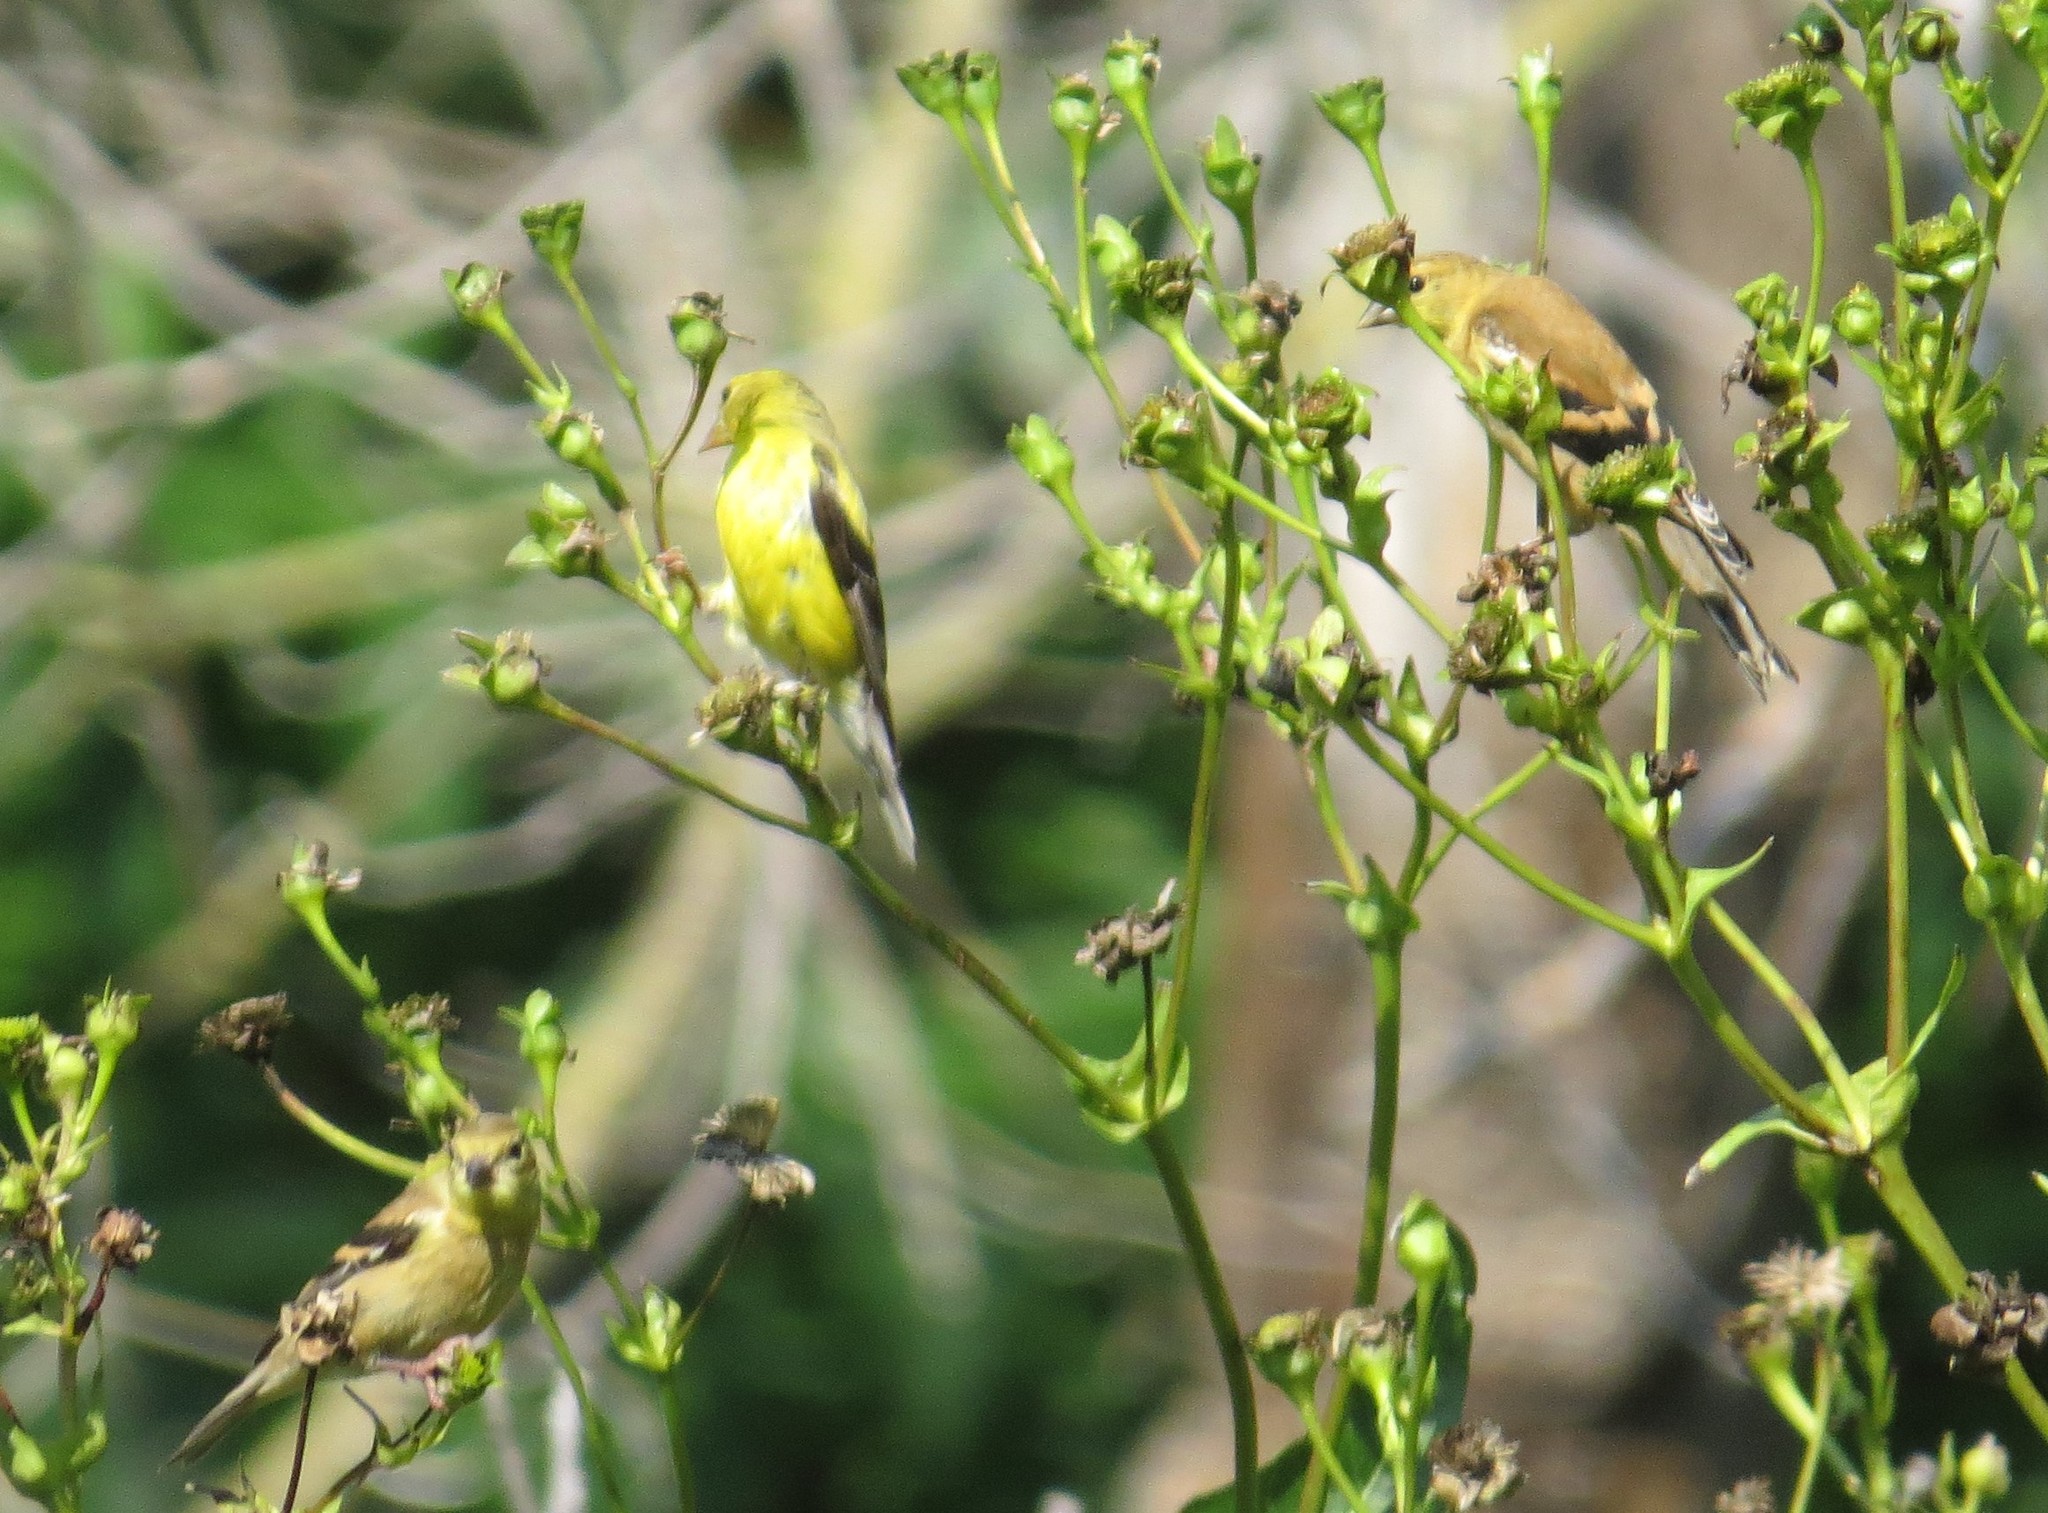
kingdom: Animalia
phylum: Chordata
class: Aves
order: Passeriformes
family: Fringillidae
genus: Spinus
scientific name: Spinus tristis
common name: American goldfinch
